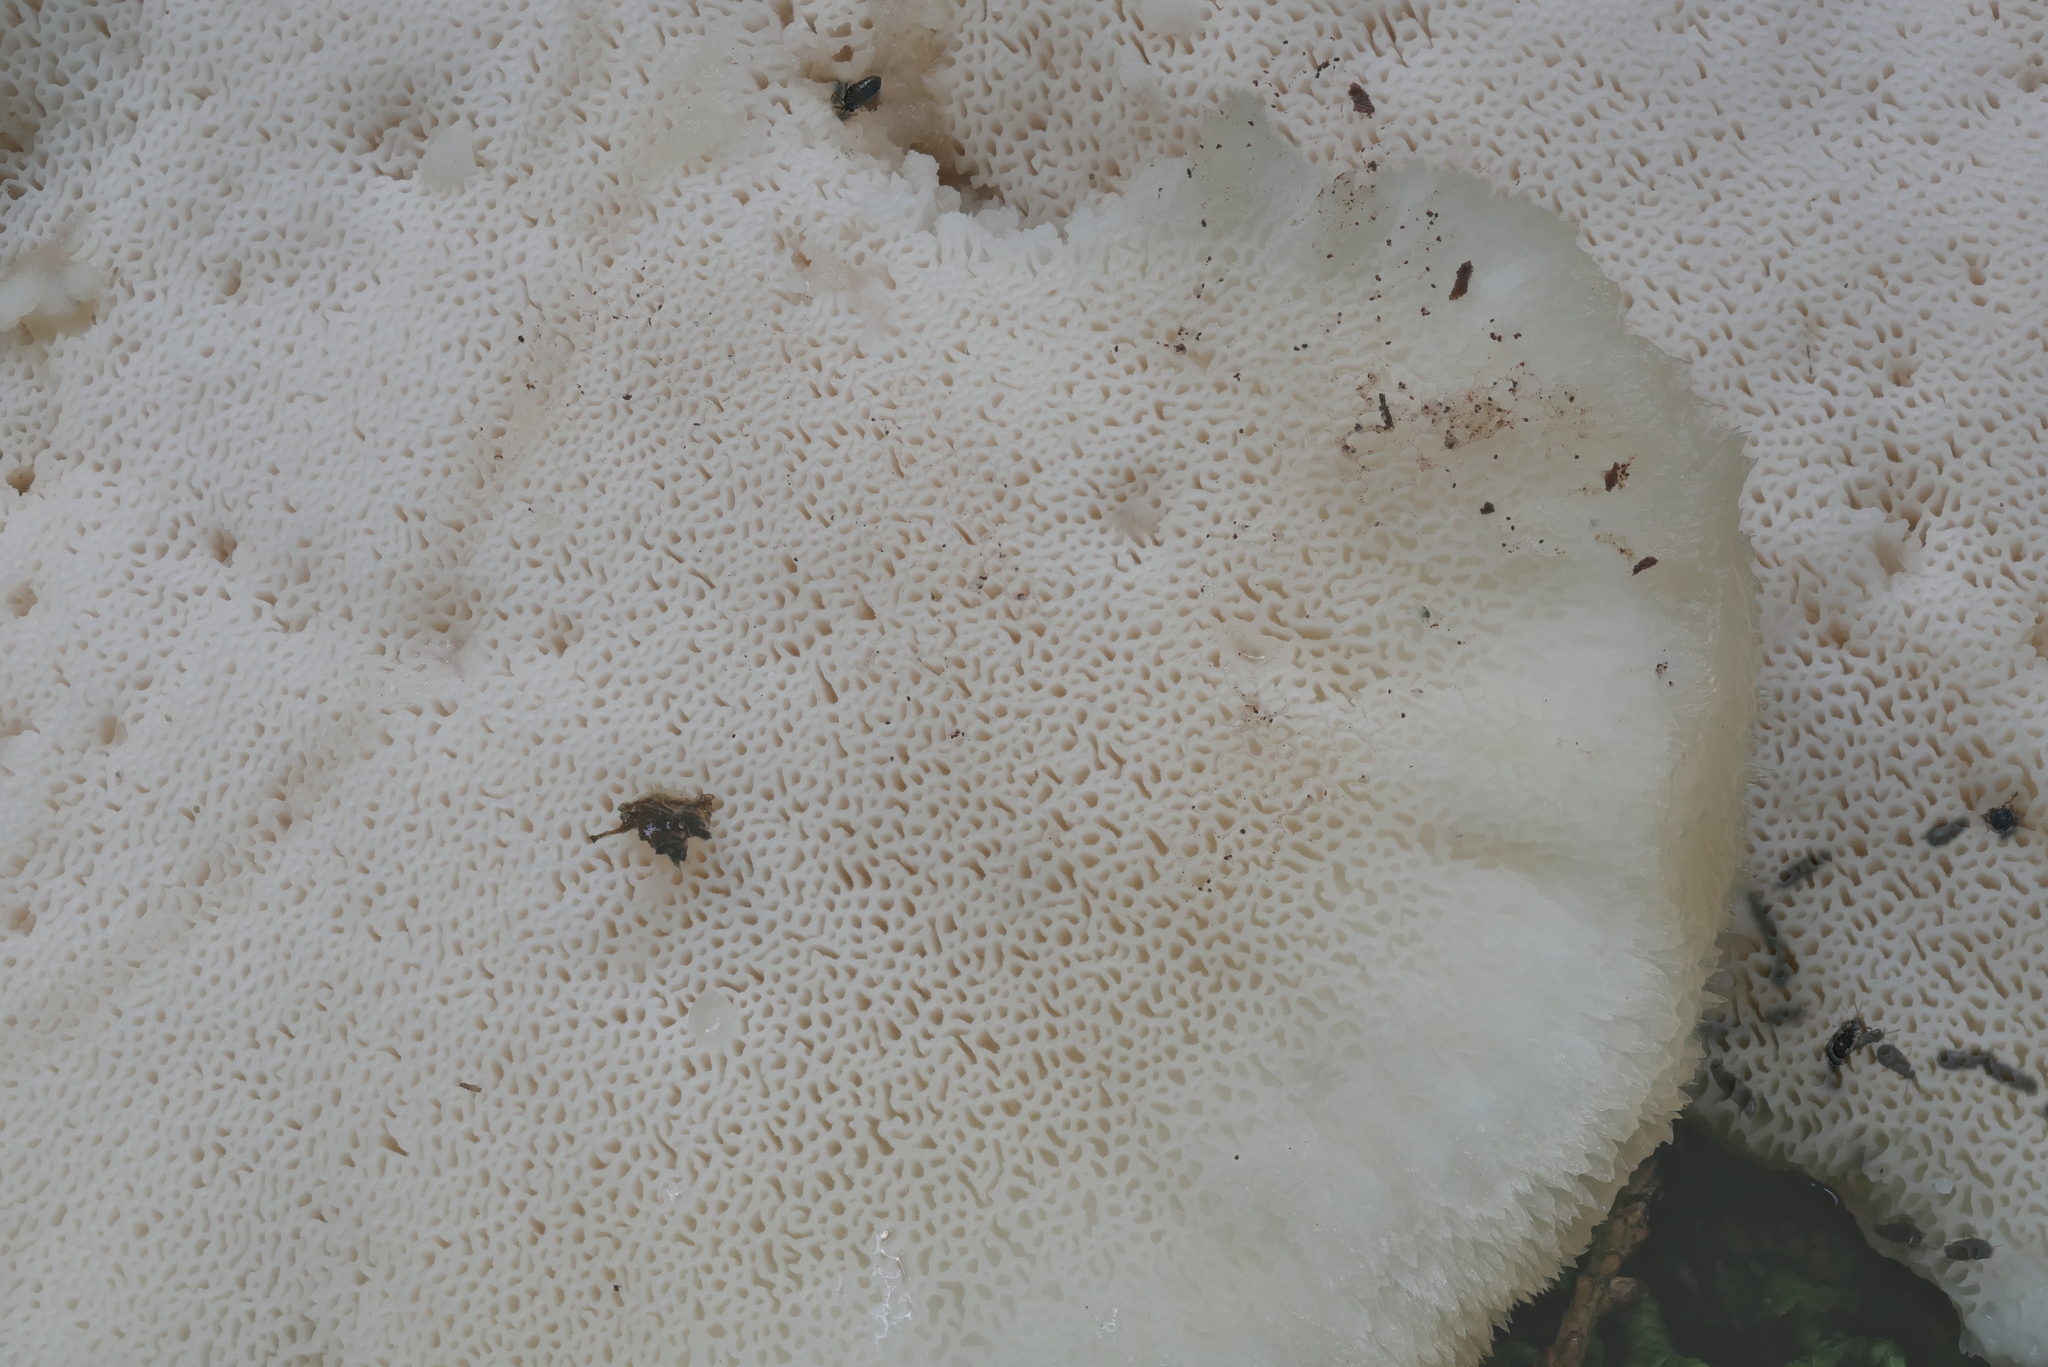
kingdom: Fungi
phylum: Basidiomycota
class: Agaricomycetes
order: Polyporales
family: Fomitopsidaceae
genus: Climacocystis
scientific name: Climacocystis borealis
